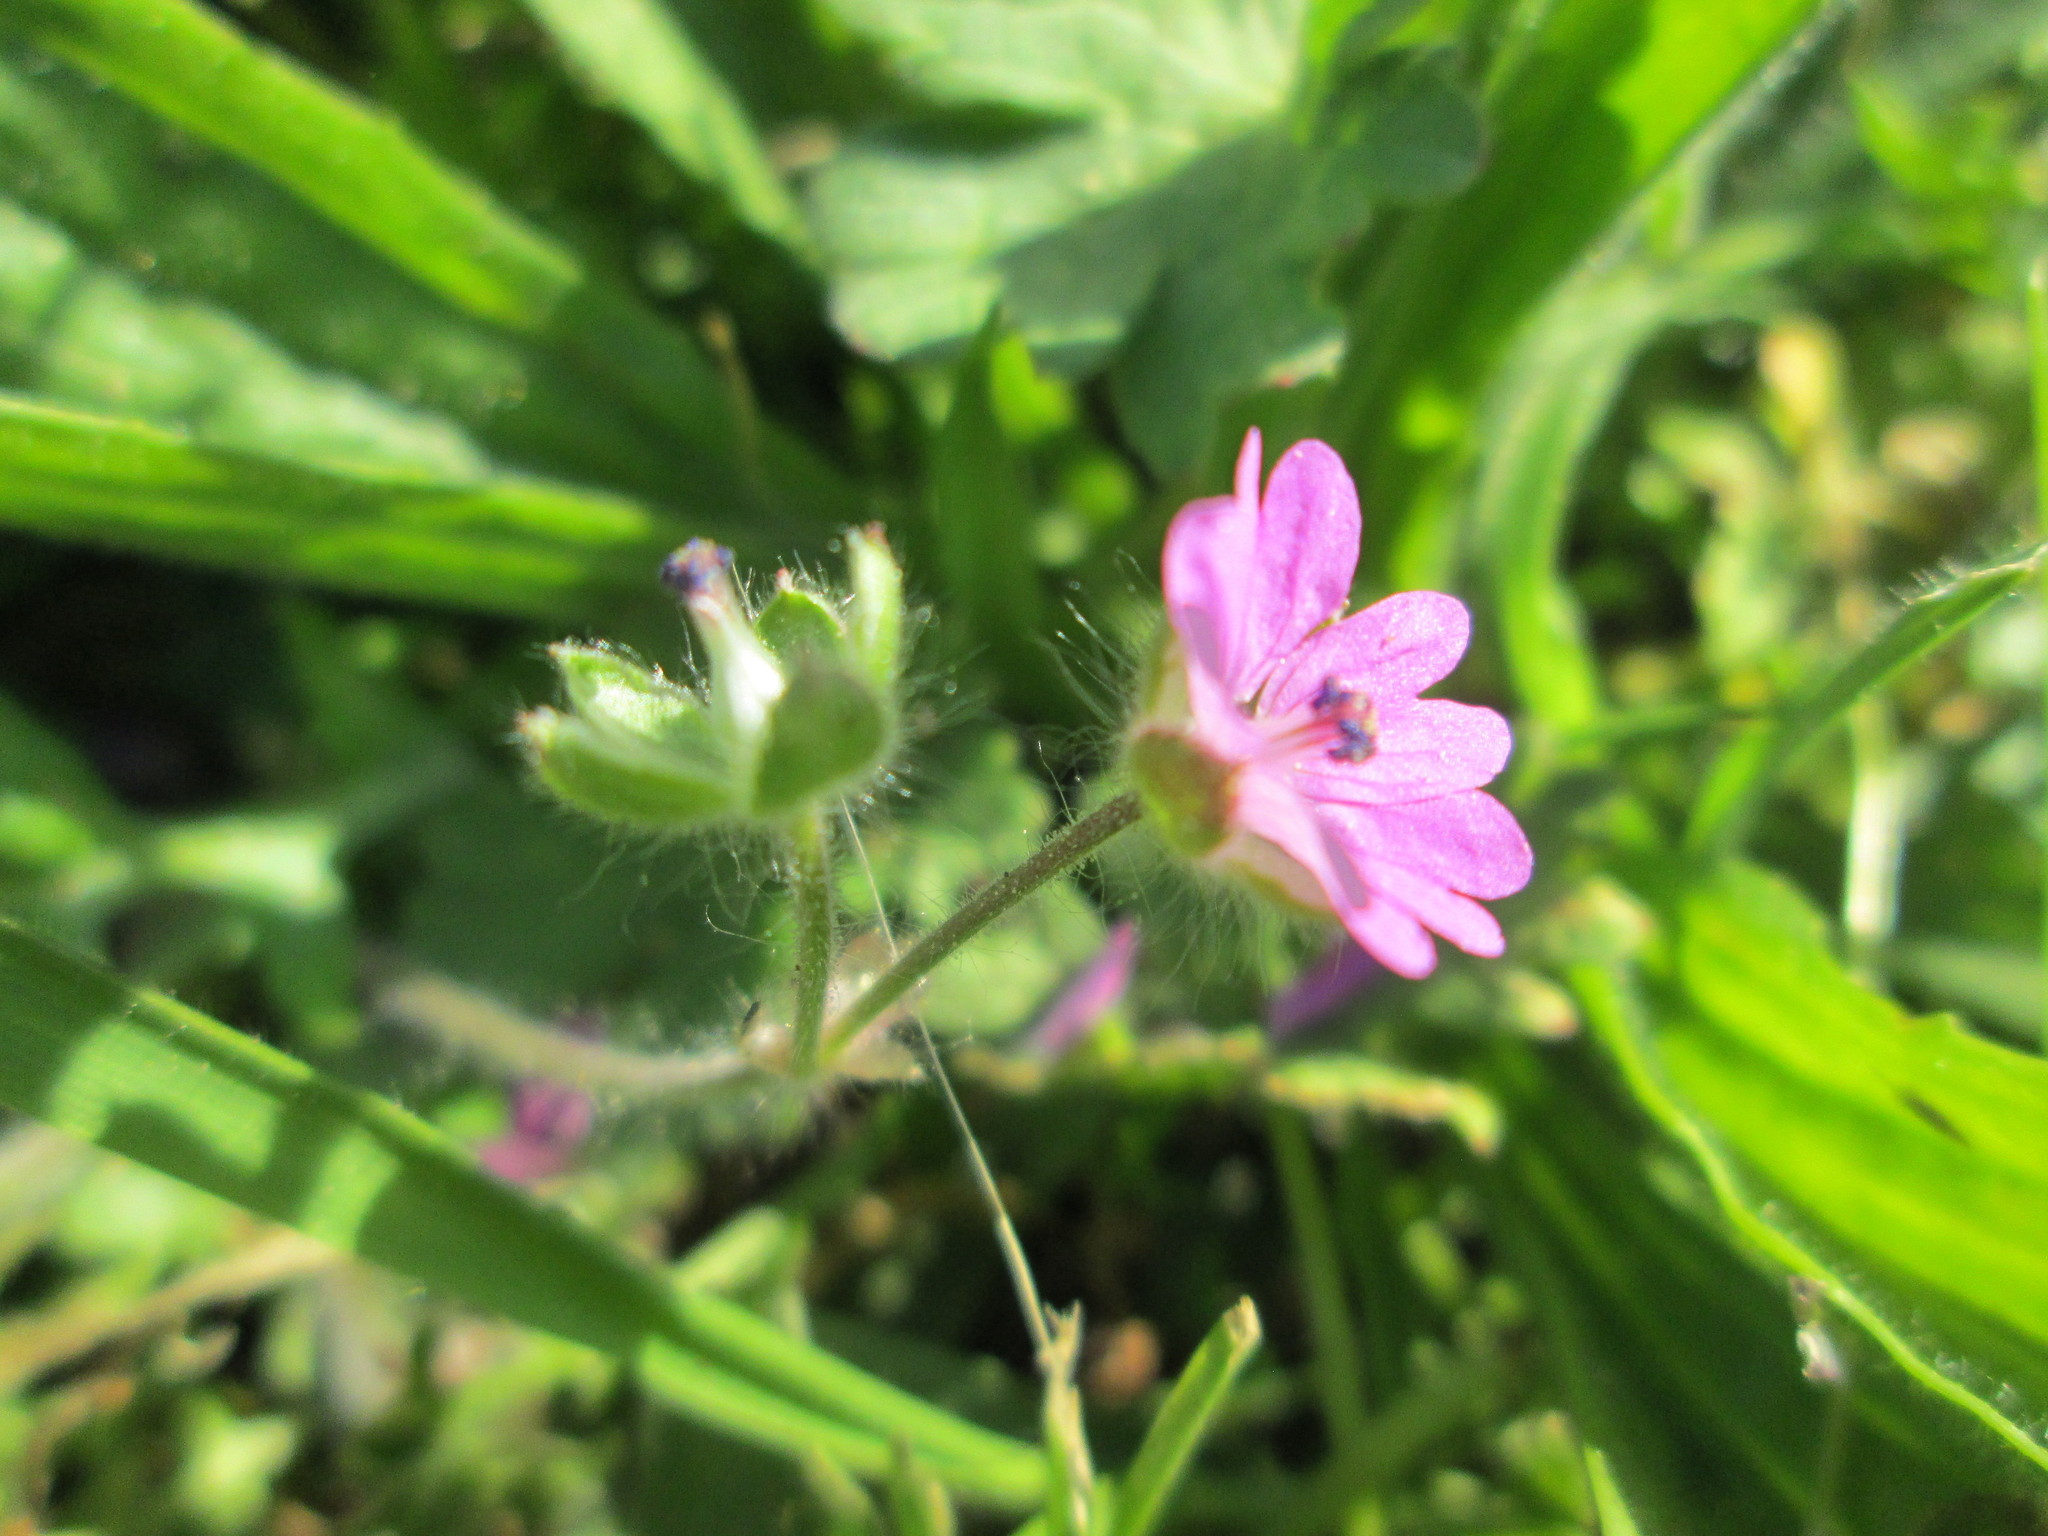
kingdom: Plantae
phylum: Tracheophyta
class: Magnoliopsida
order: Geraniales
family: Geraniaceae
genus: Geranium
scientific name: Geranium molle
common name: Dove's-foot crane's-bill
